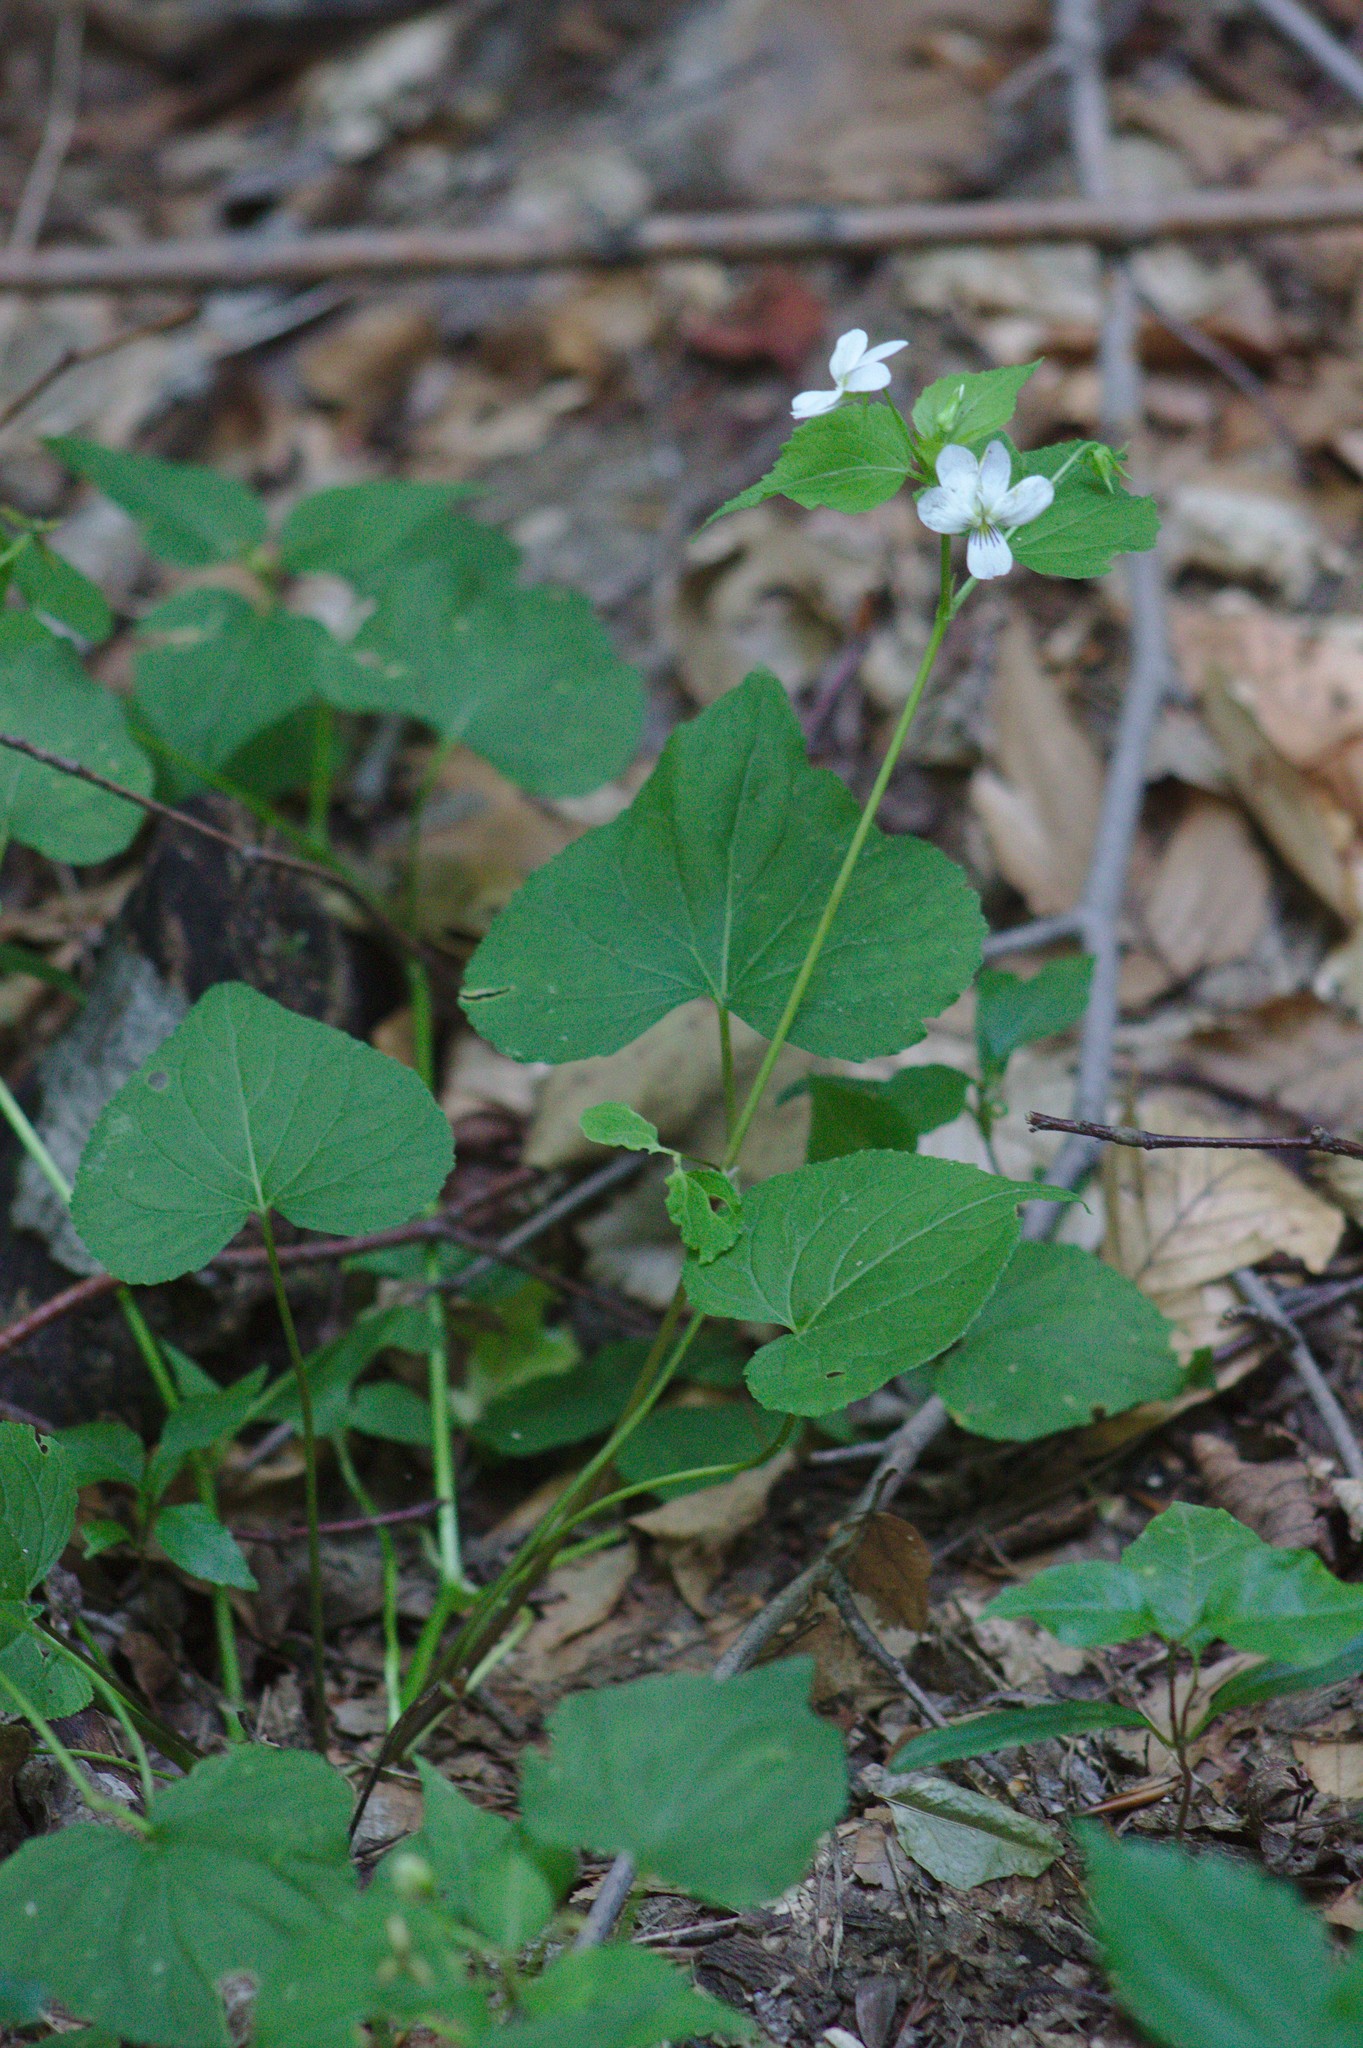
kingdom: Plantae
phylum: Tracheophyta
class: Magnoliopsida
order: Malpighiales
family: Violaceae
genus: Viola
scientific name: Viola canadensis
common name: Canada violet
